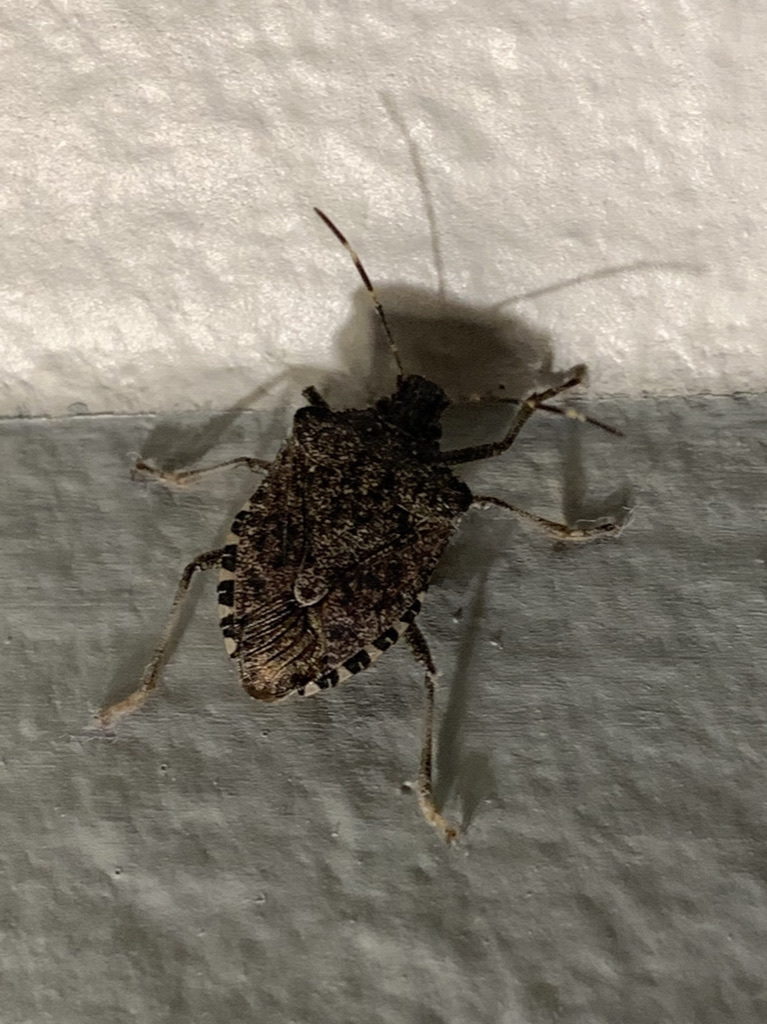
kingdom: Animalia
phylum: Arthropoda
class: Insecta
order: Hemiptera
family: Pentatomidae
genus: Halyomorpha
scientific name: Halyomorpha halys
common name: Brown marmorated stink bug
